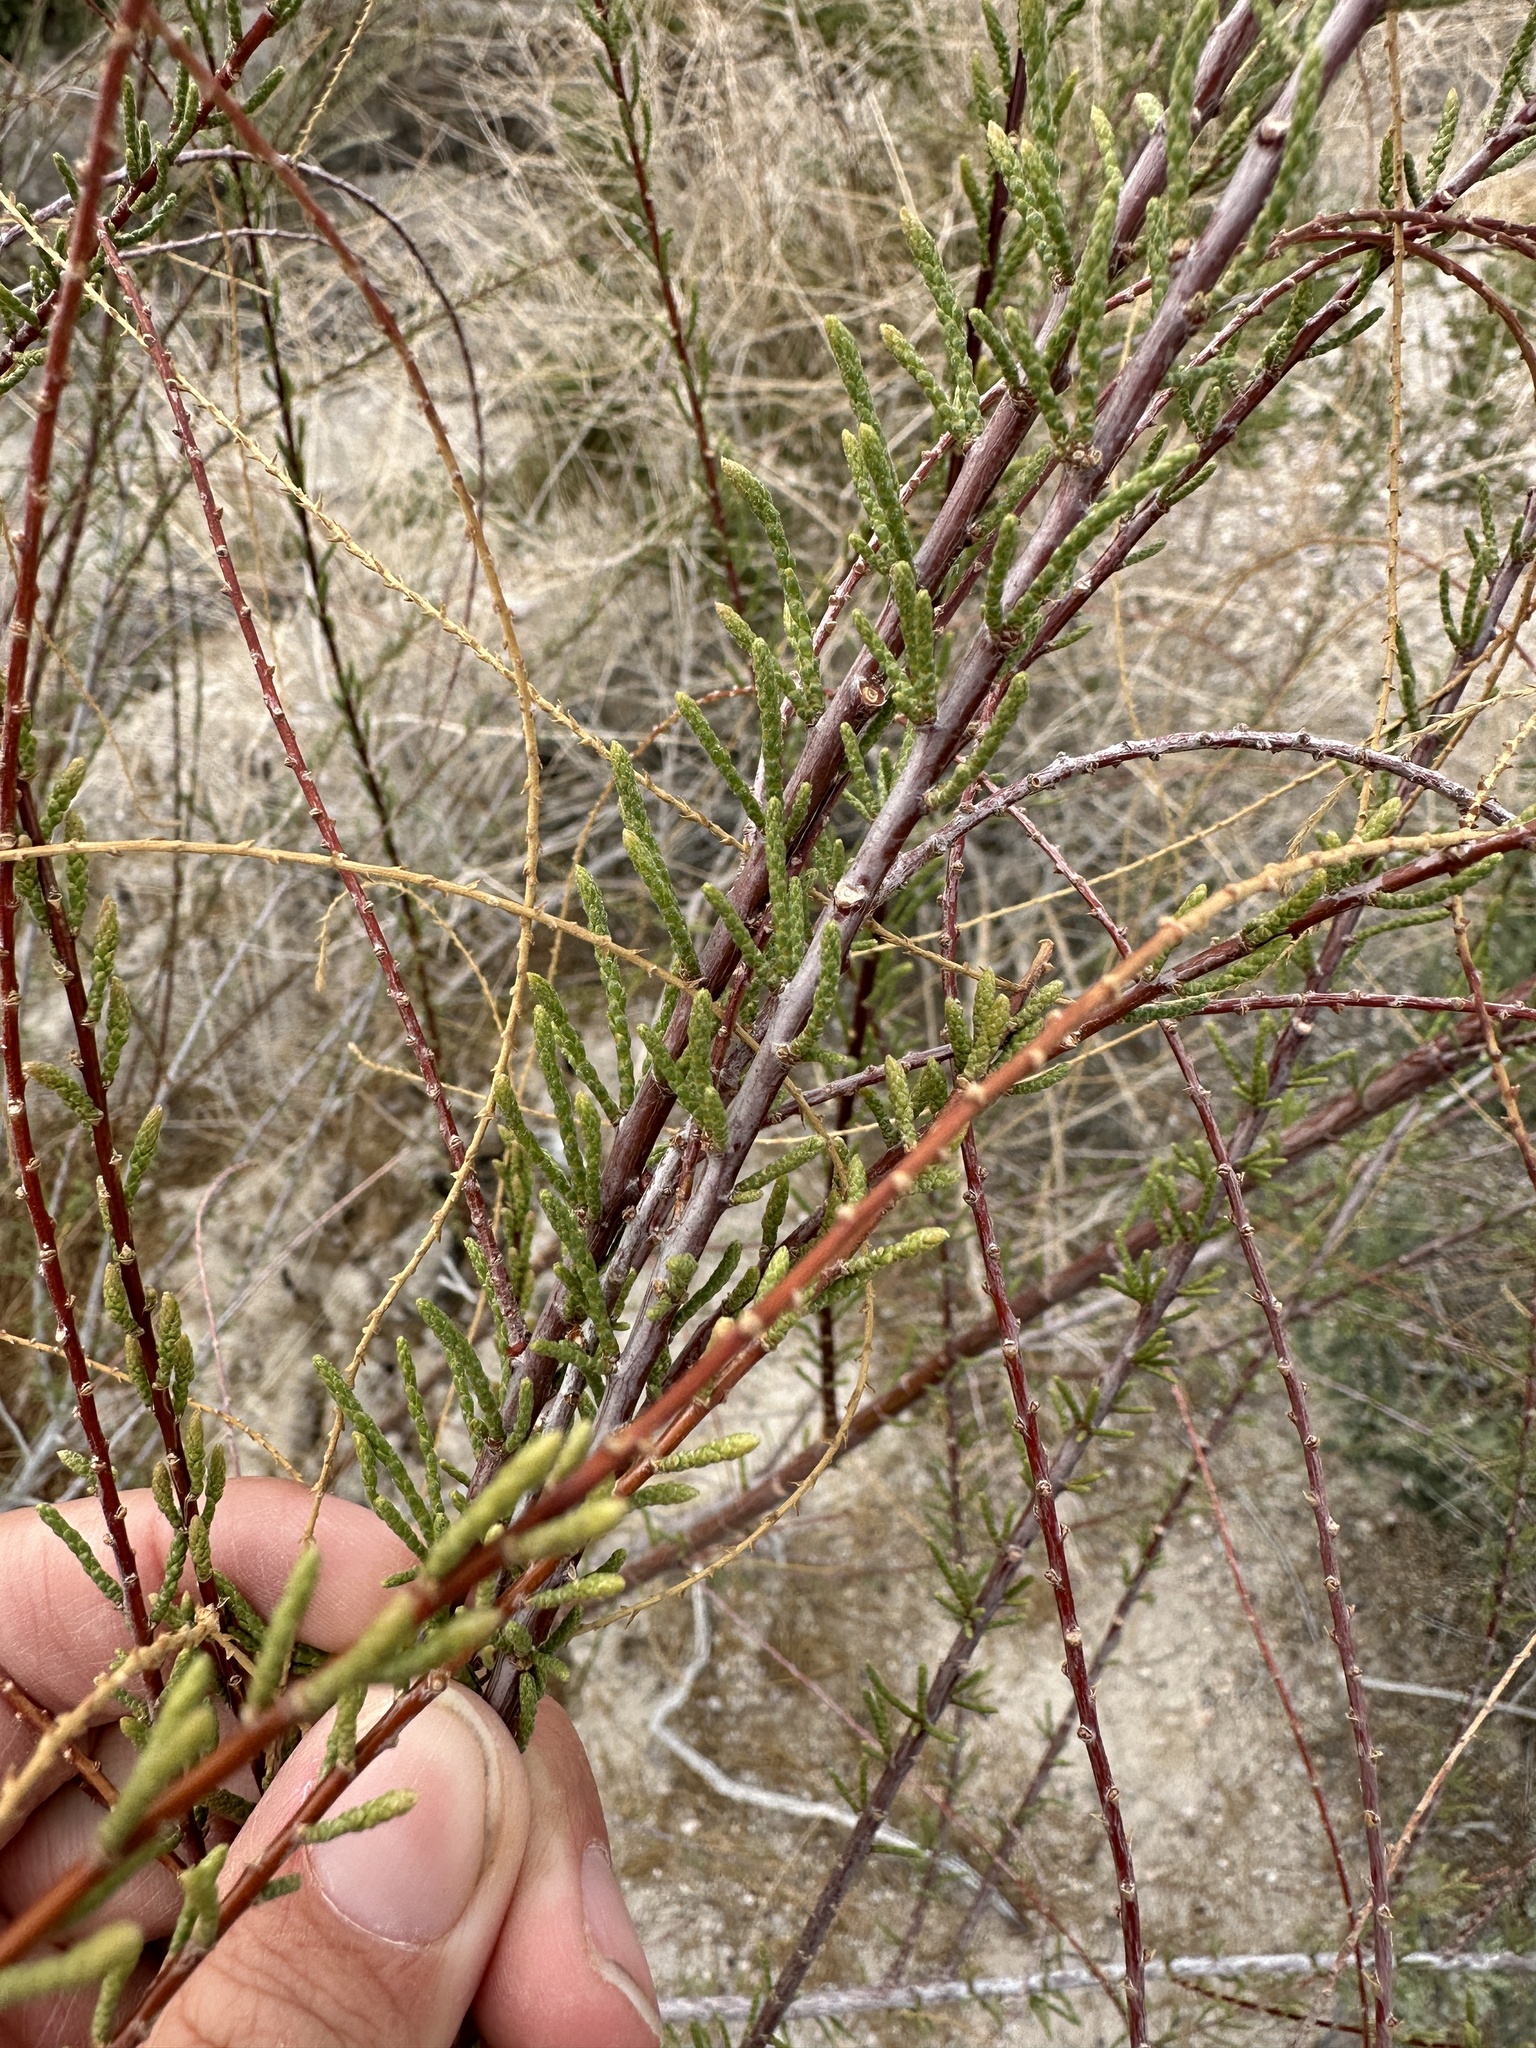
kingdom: Plantae
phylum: Tracheophyta
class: Magnoliopsida
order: Caryophyllales
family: Tamaricaceae
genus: Tamarix
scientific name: Tamarix
